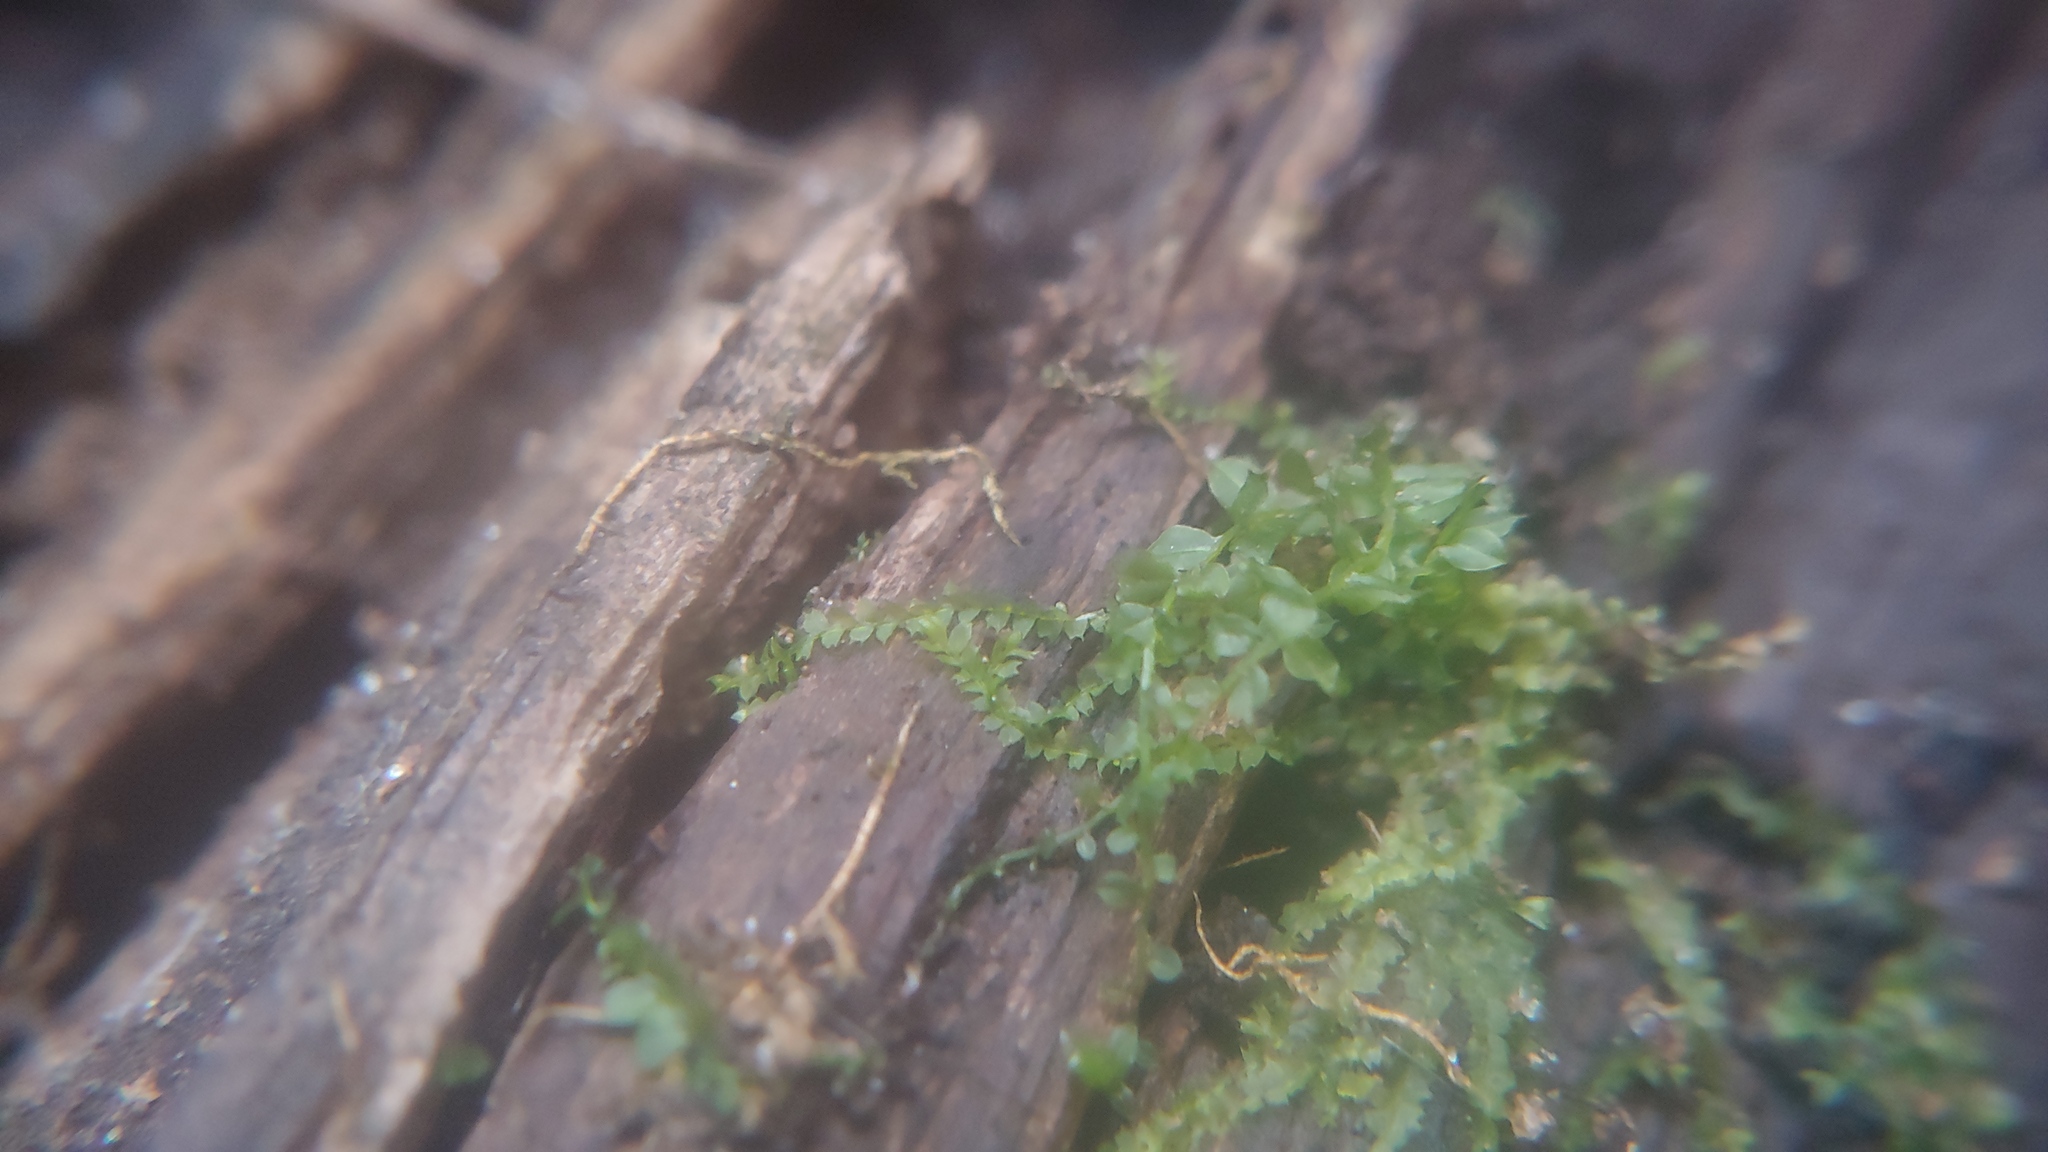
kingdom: Plantae
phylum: Marchantiophyta
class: Jungermanniopsida
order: Jungermanniales
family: Lophocoleaceae
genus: Lophocolea
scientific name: Lophocolea bidentata
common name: Bifid crestwort
